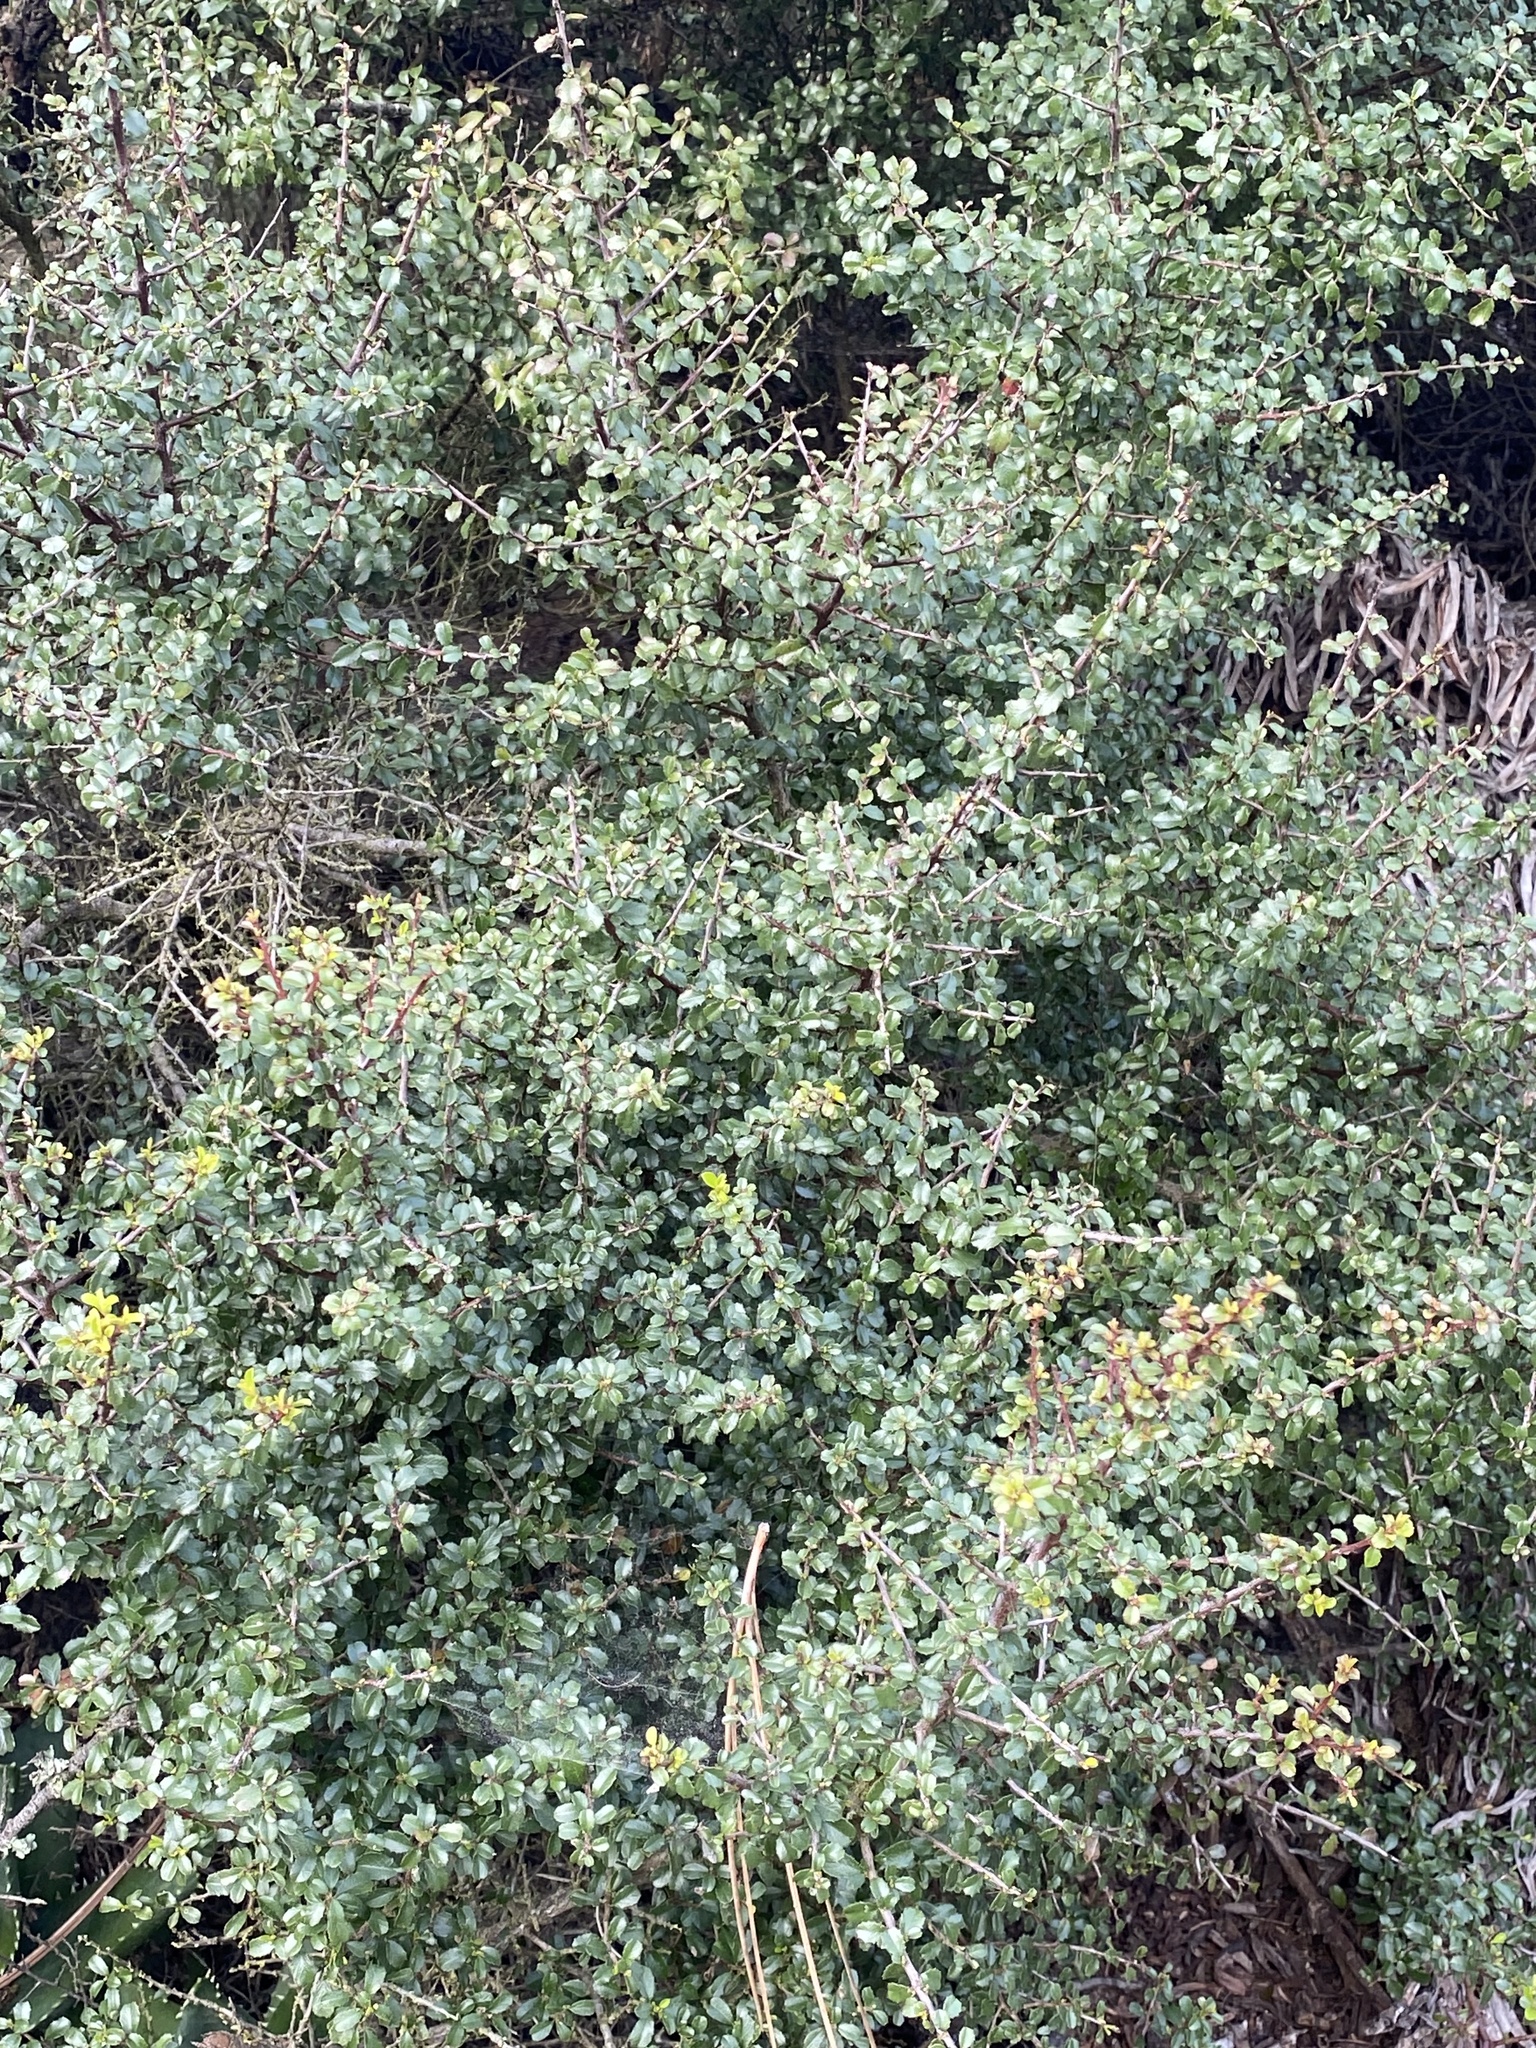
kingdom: Plantae
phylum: Tracheophyta
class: Magnoliopsida
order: Rosales
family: Rhamnaceae
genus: Endotropis
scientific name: Endotropis crocea
